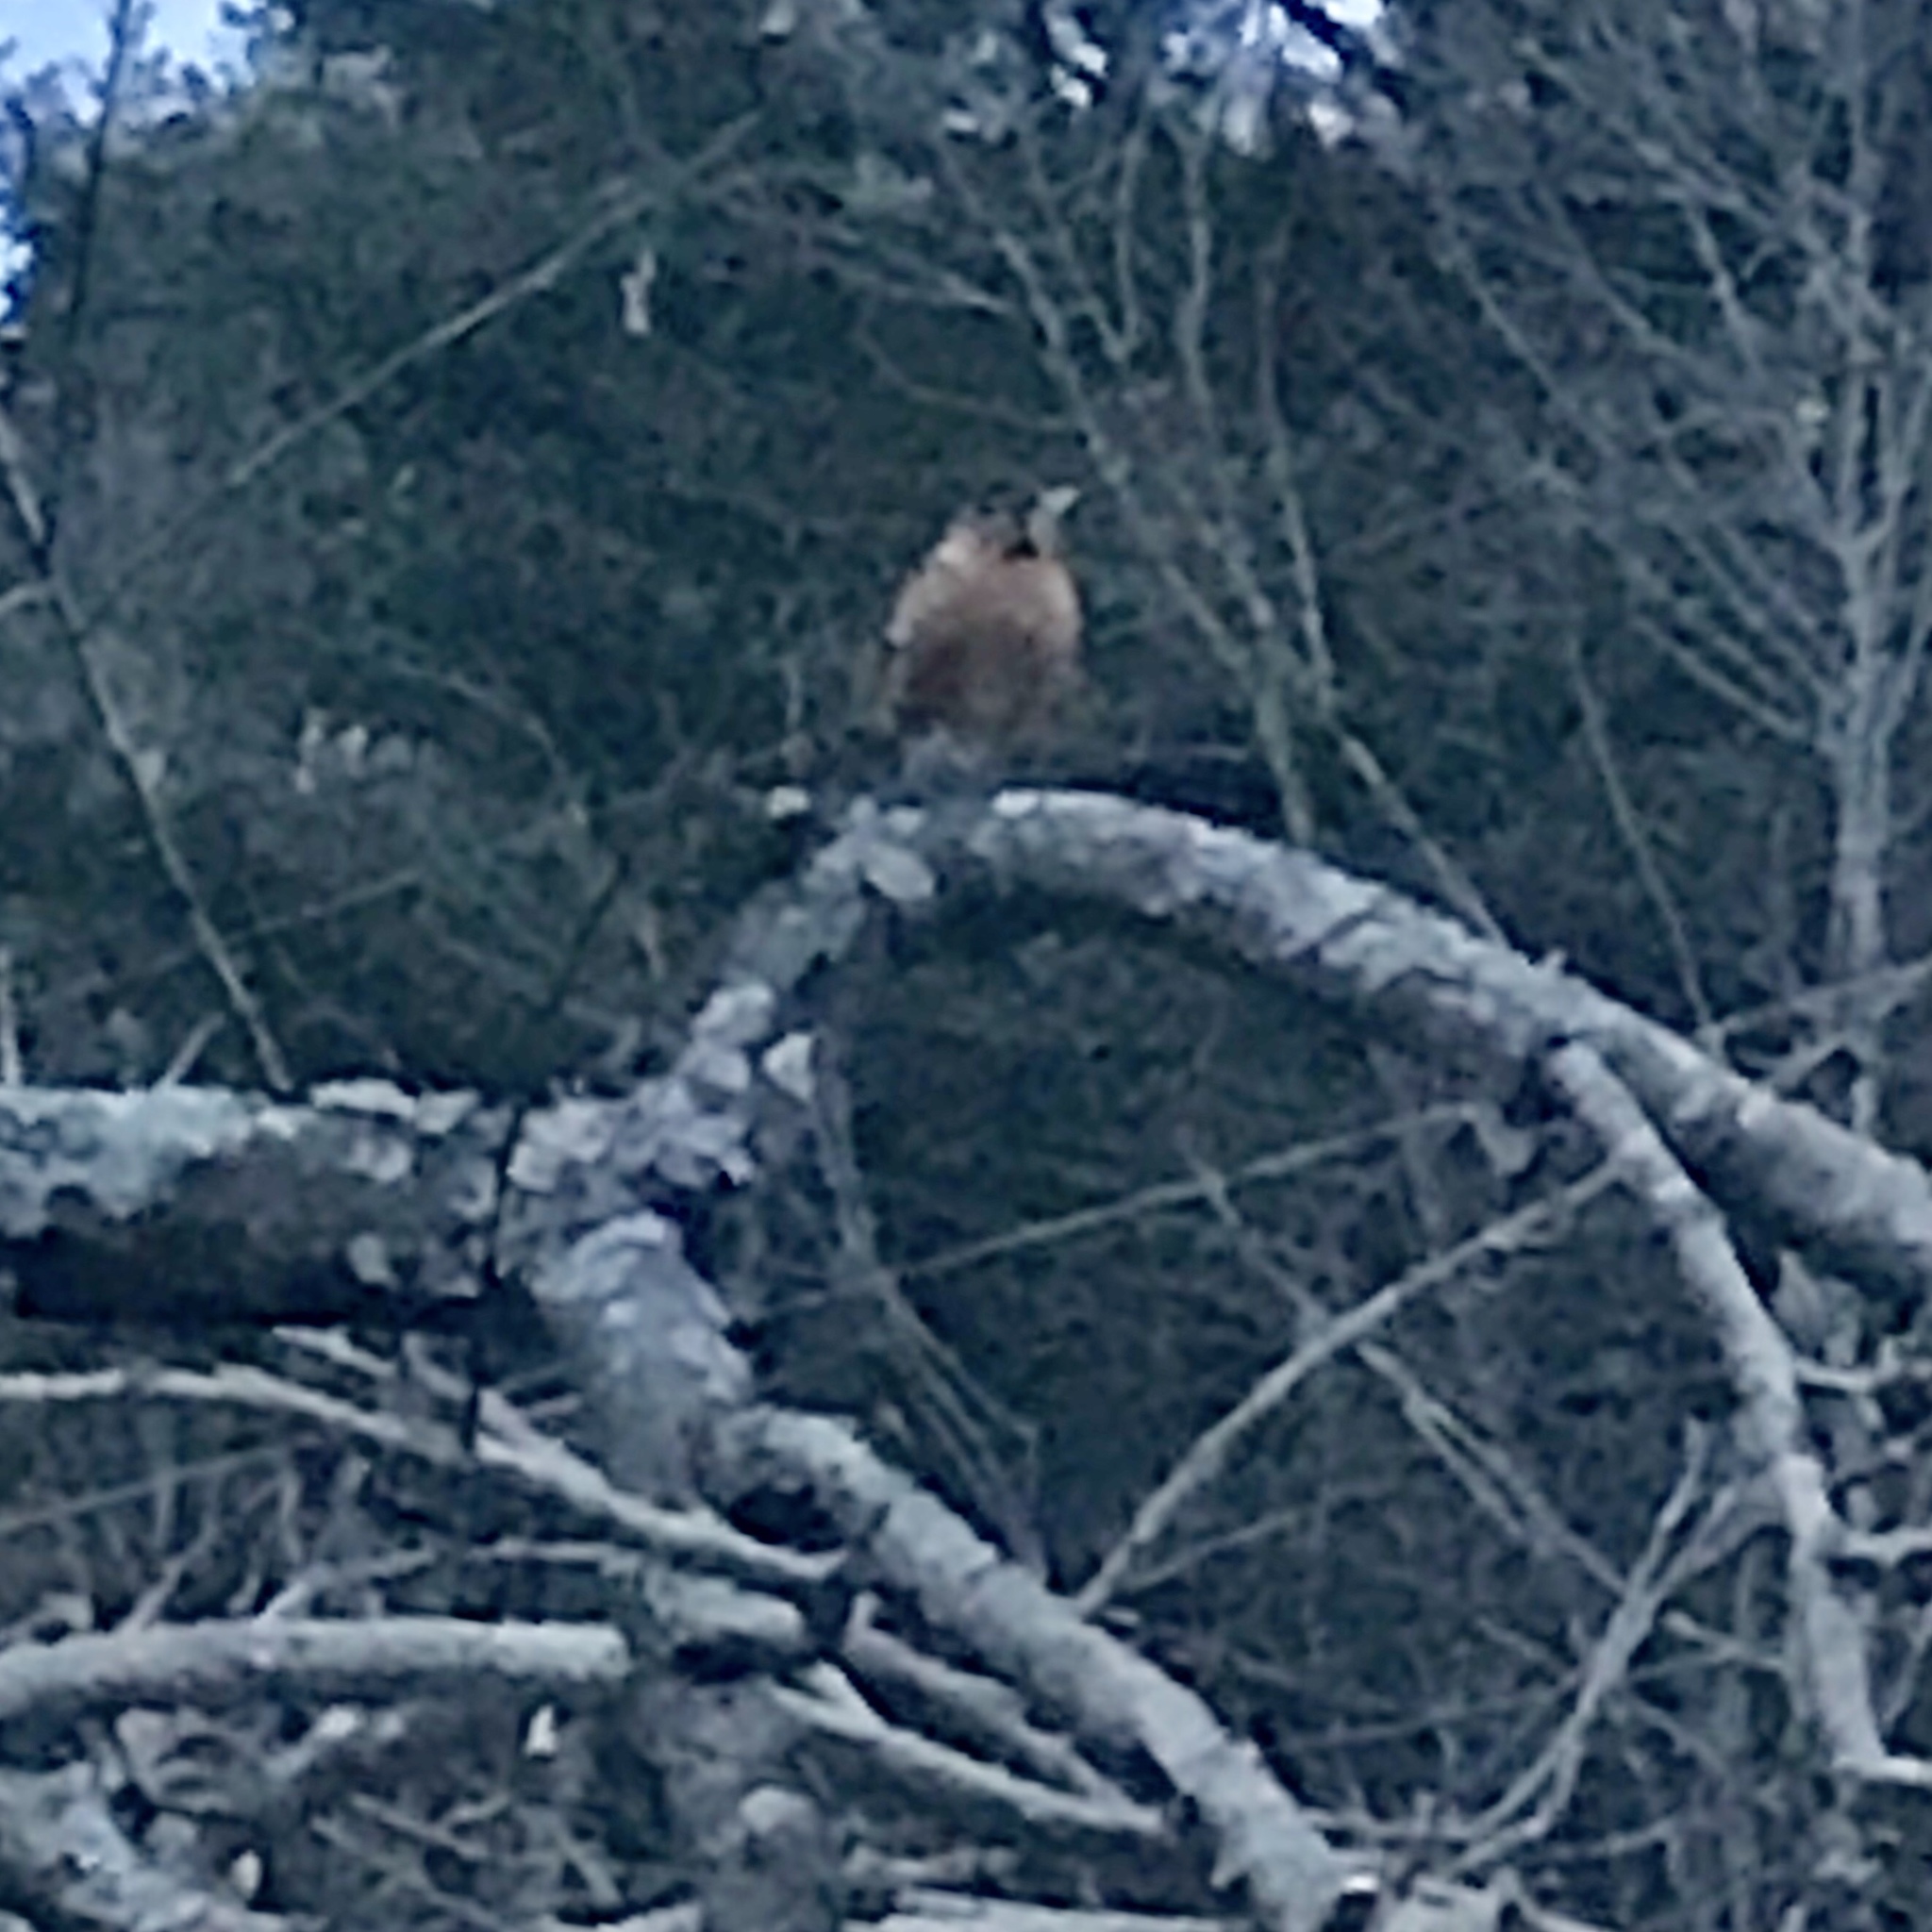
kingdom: Animalia
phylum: Chordata
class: Aves
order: Passeriformes
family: Turdidae
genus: Turdus
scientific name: Turdus migratorius
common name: American robin
